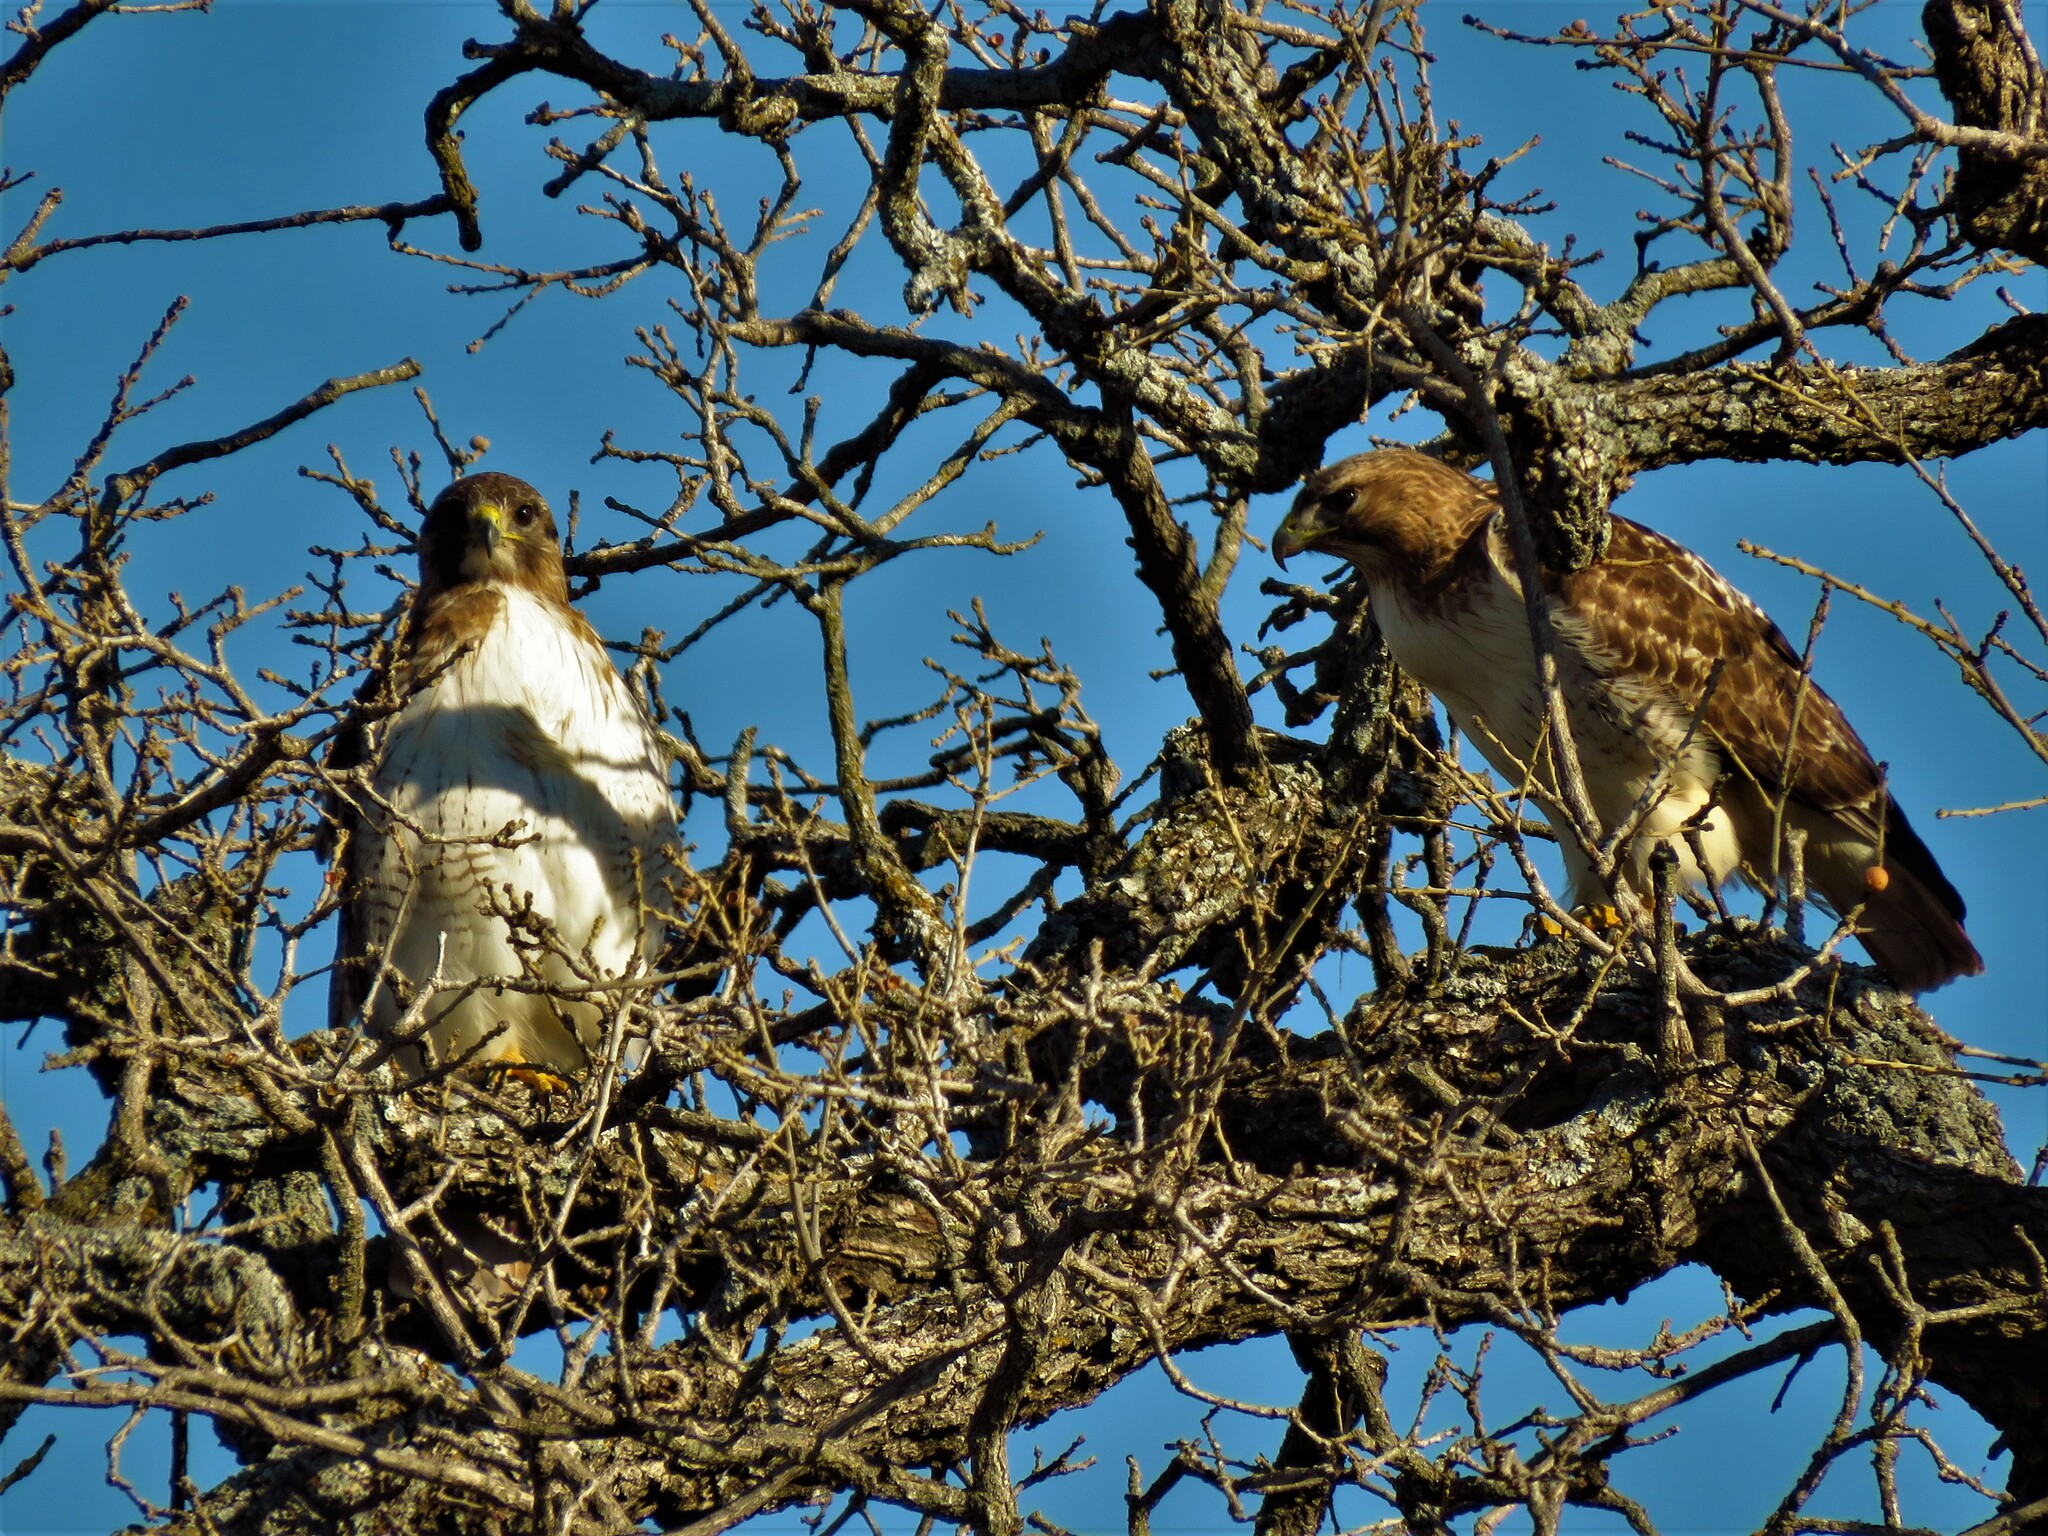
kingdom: Animalia
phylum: Chordata
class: Aves
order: Accipitriformes
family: Accipitridae
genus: Buteo
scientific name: Buteo jamaicensis
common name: Red-tailed hawk
